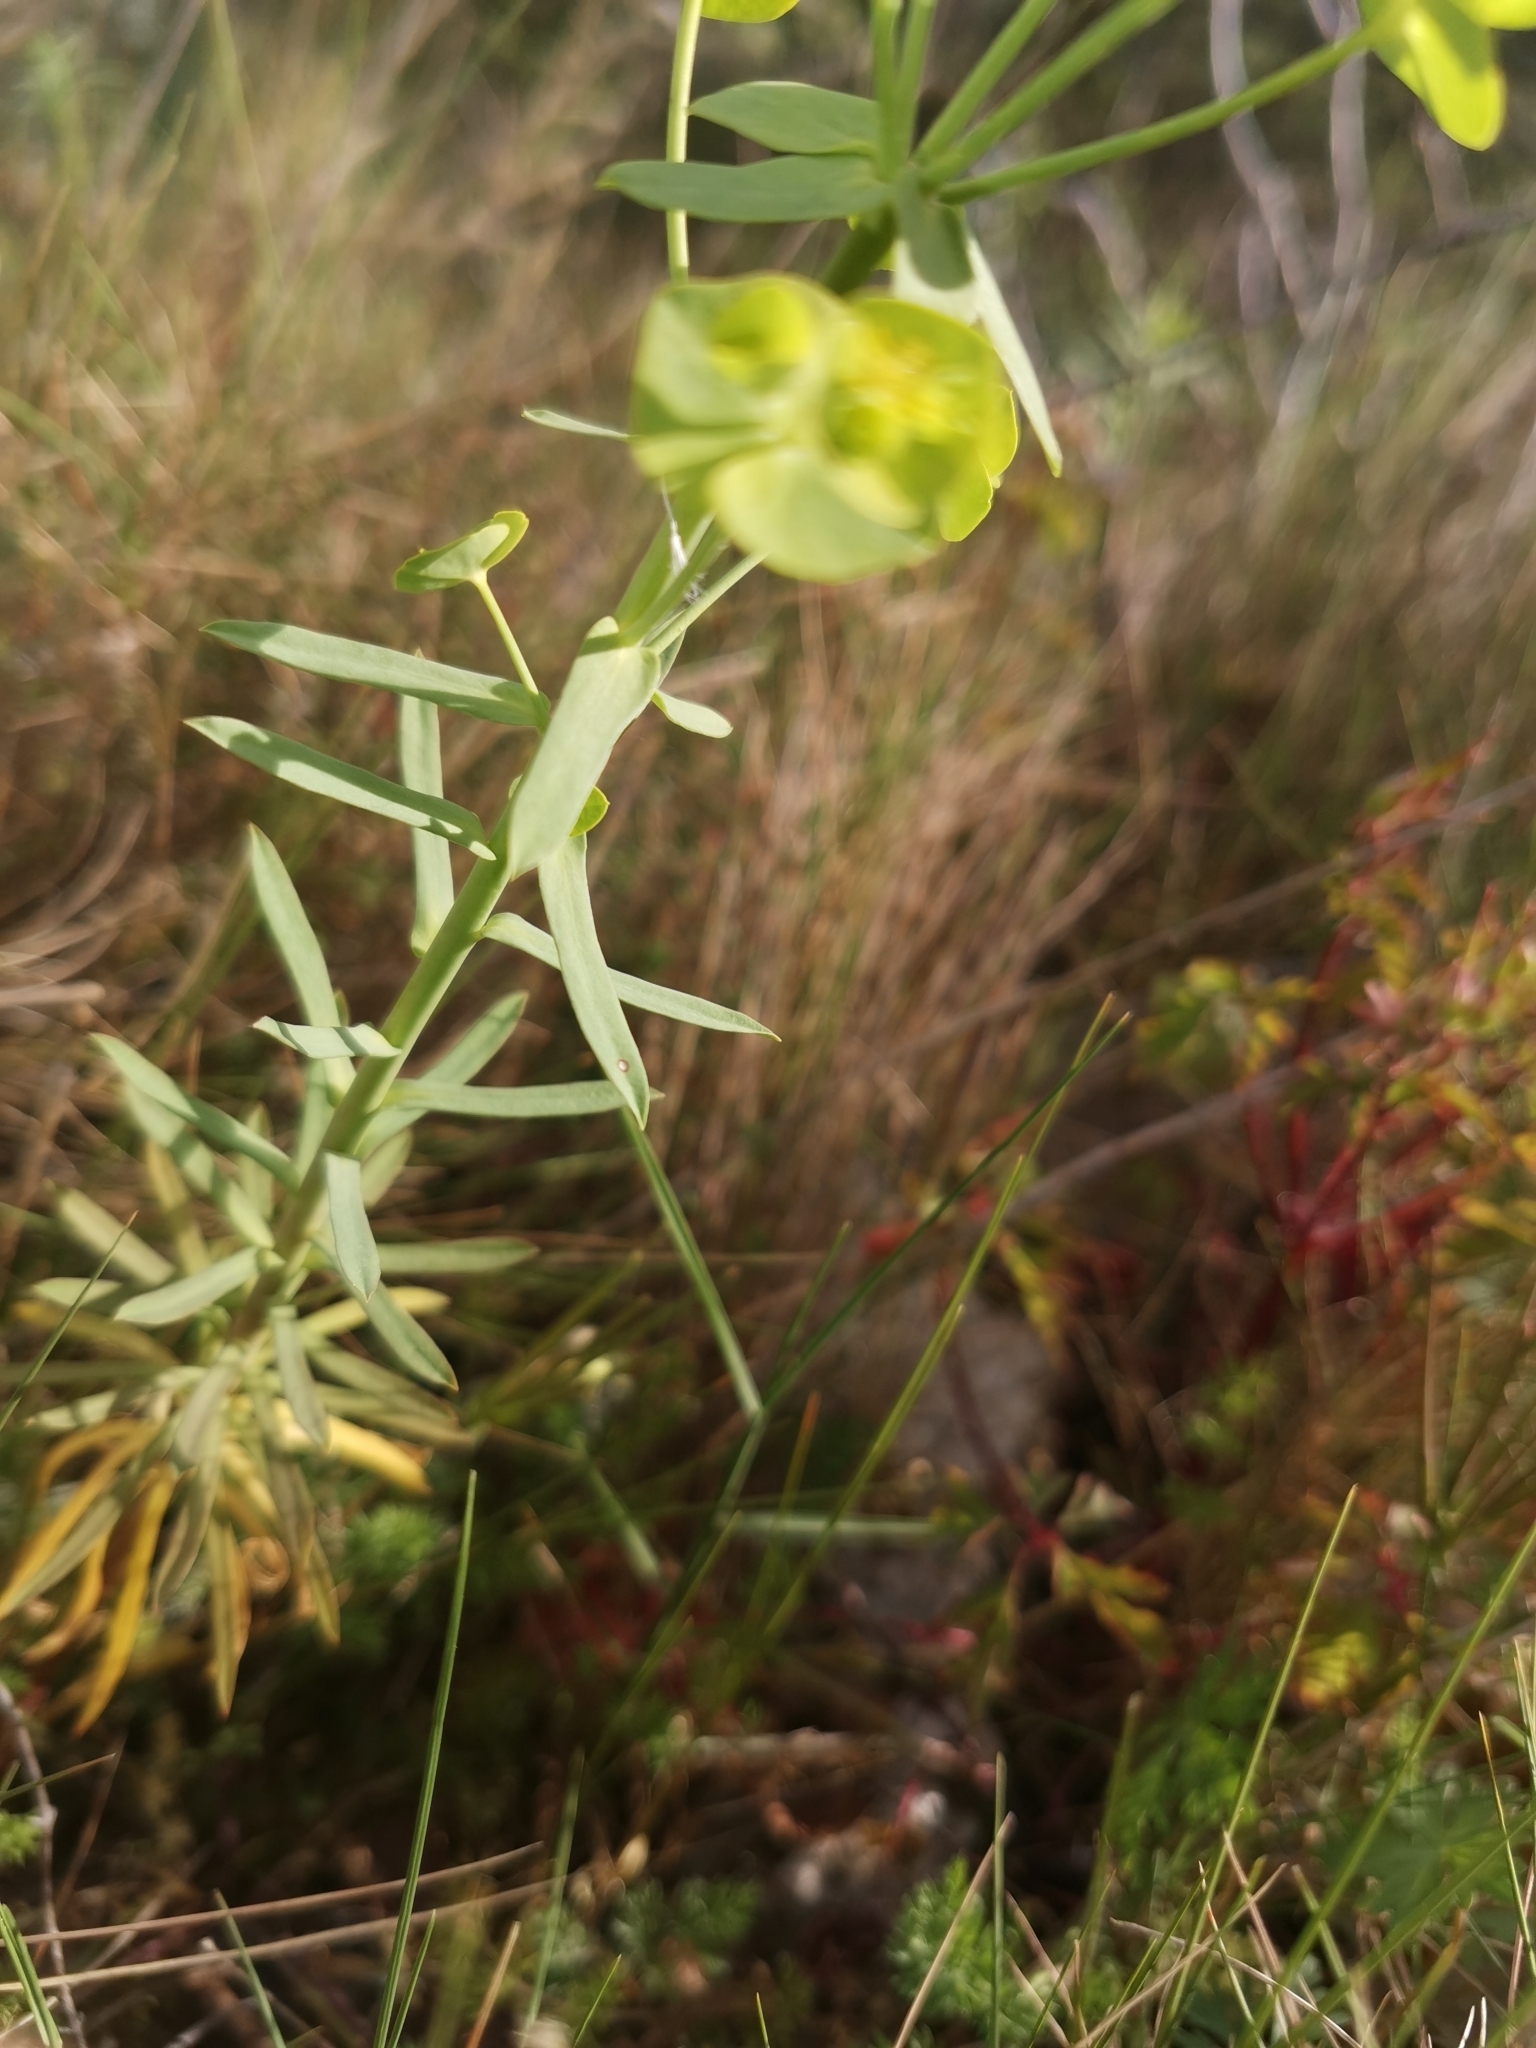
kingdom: Plantae
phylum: Tracheophyta
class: Magnoliopsida
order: Malpighiales
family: Euphorbiaceae
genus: Euphorbia
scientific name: Euphorbia segetalis
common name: Corn spurge
